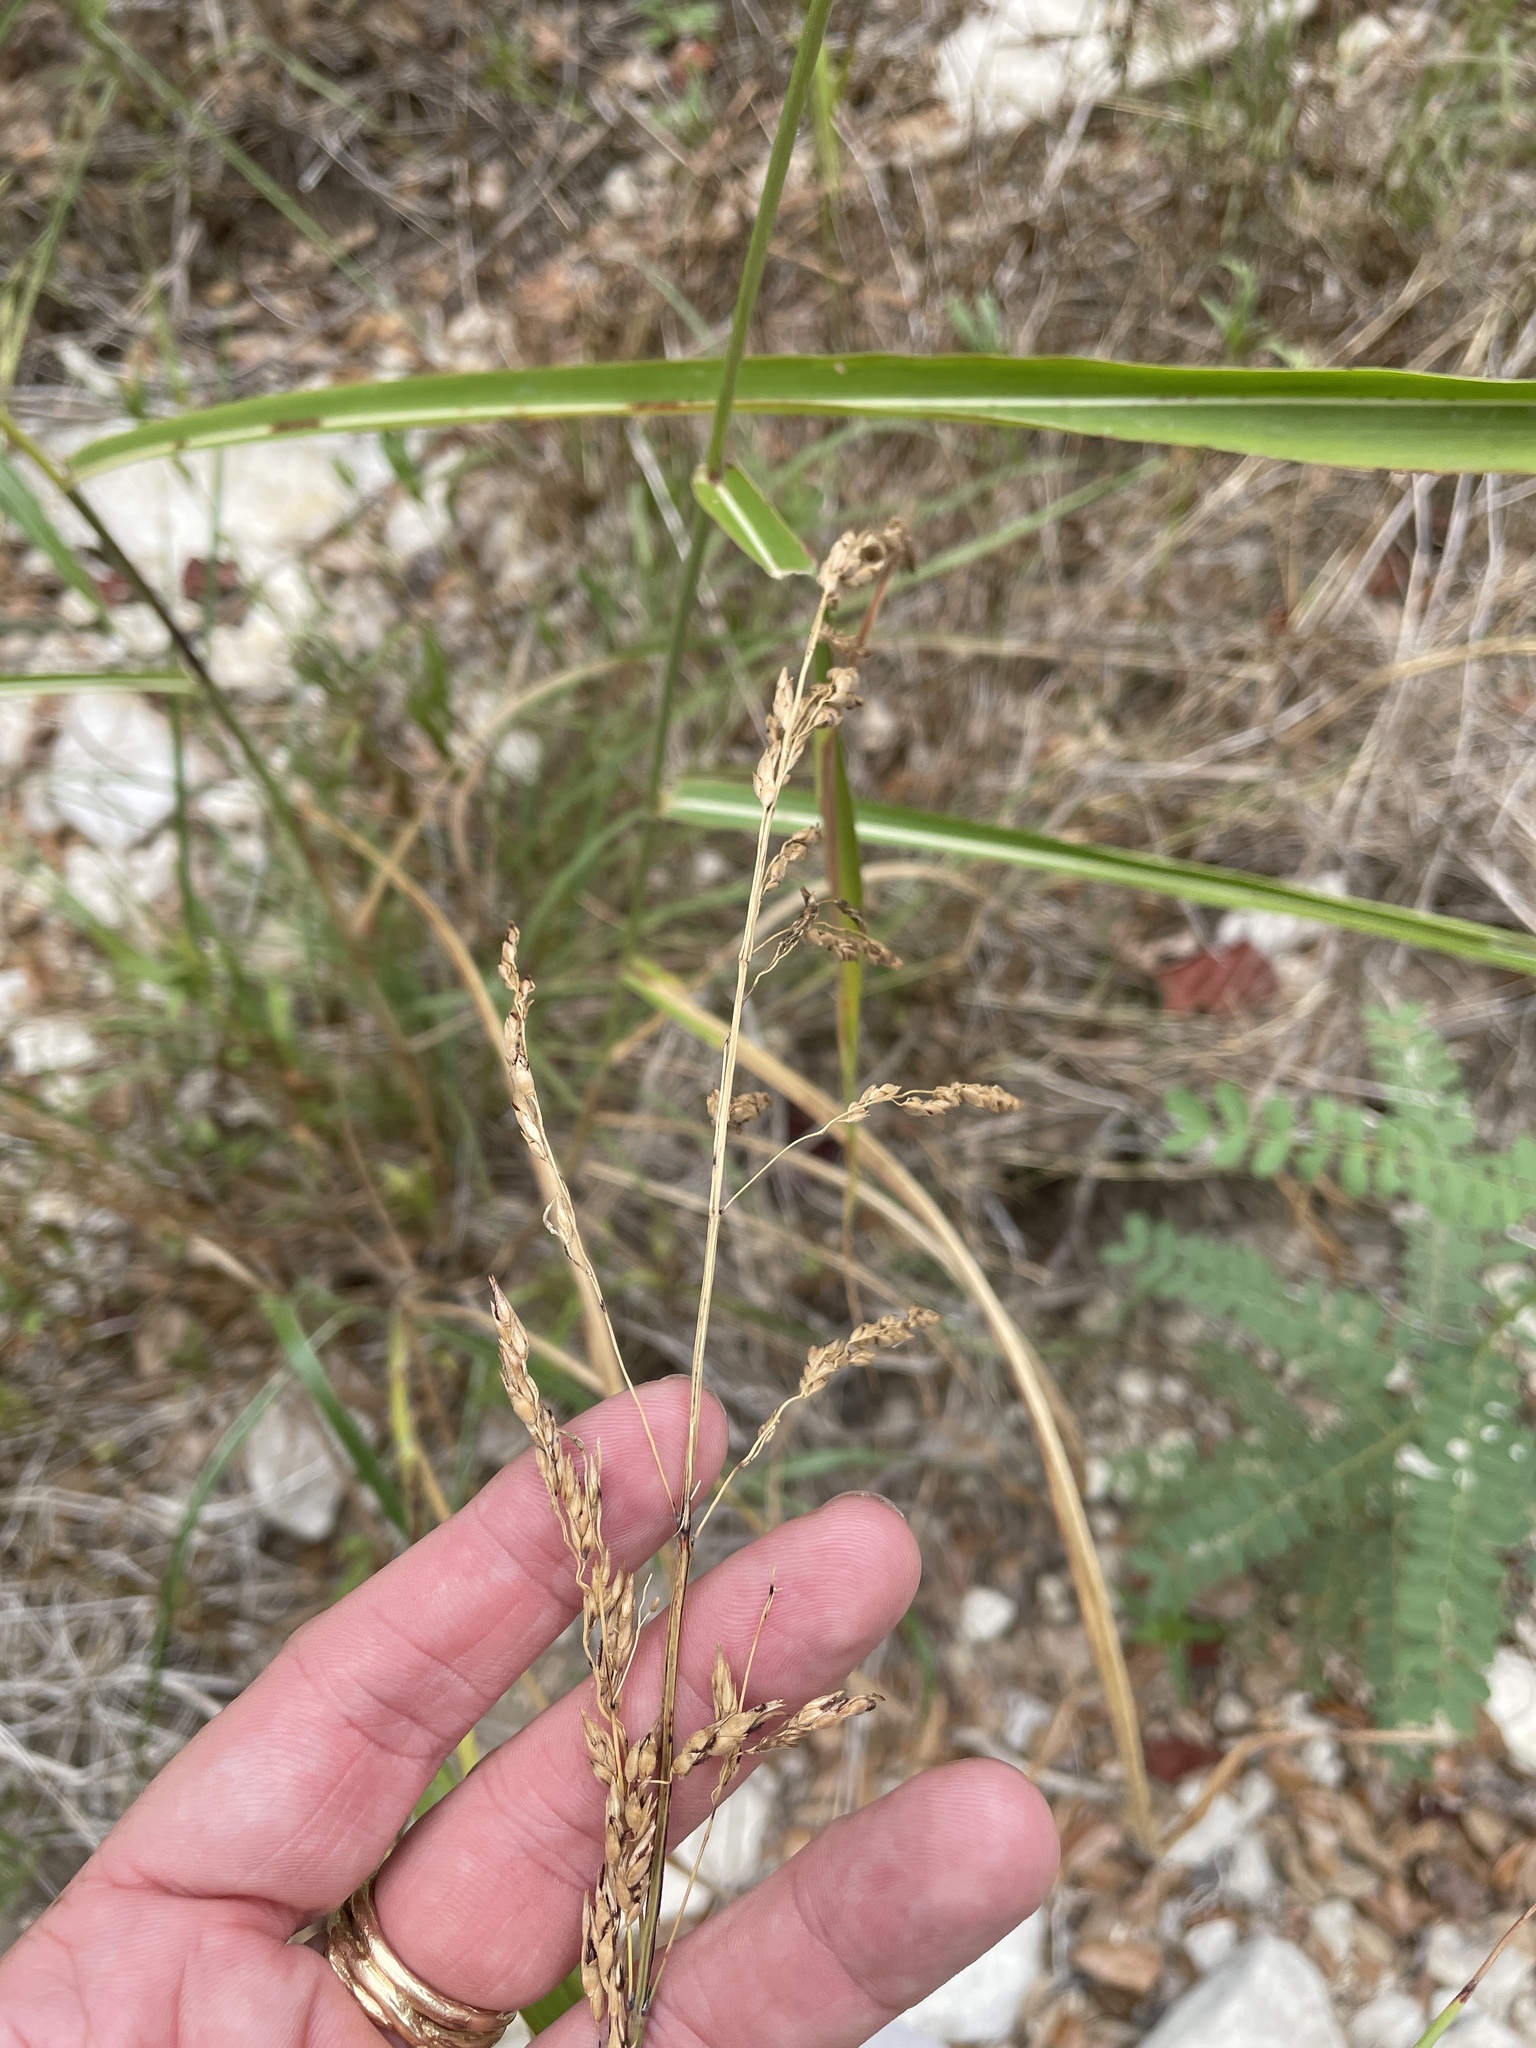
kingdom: Plantae
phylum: Tracheophyta
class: Liliopsida
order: Poales
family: Poaceae
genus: Sorghum
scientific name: Sorghum halepense
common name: Johnson-grass
